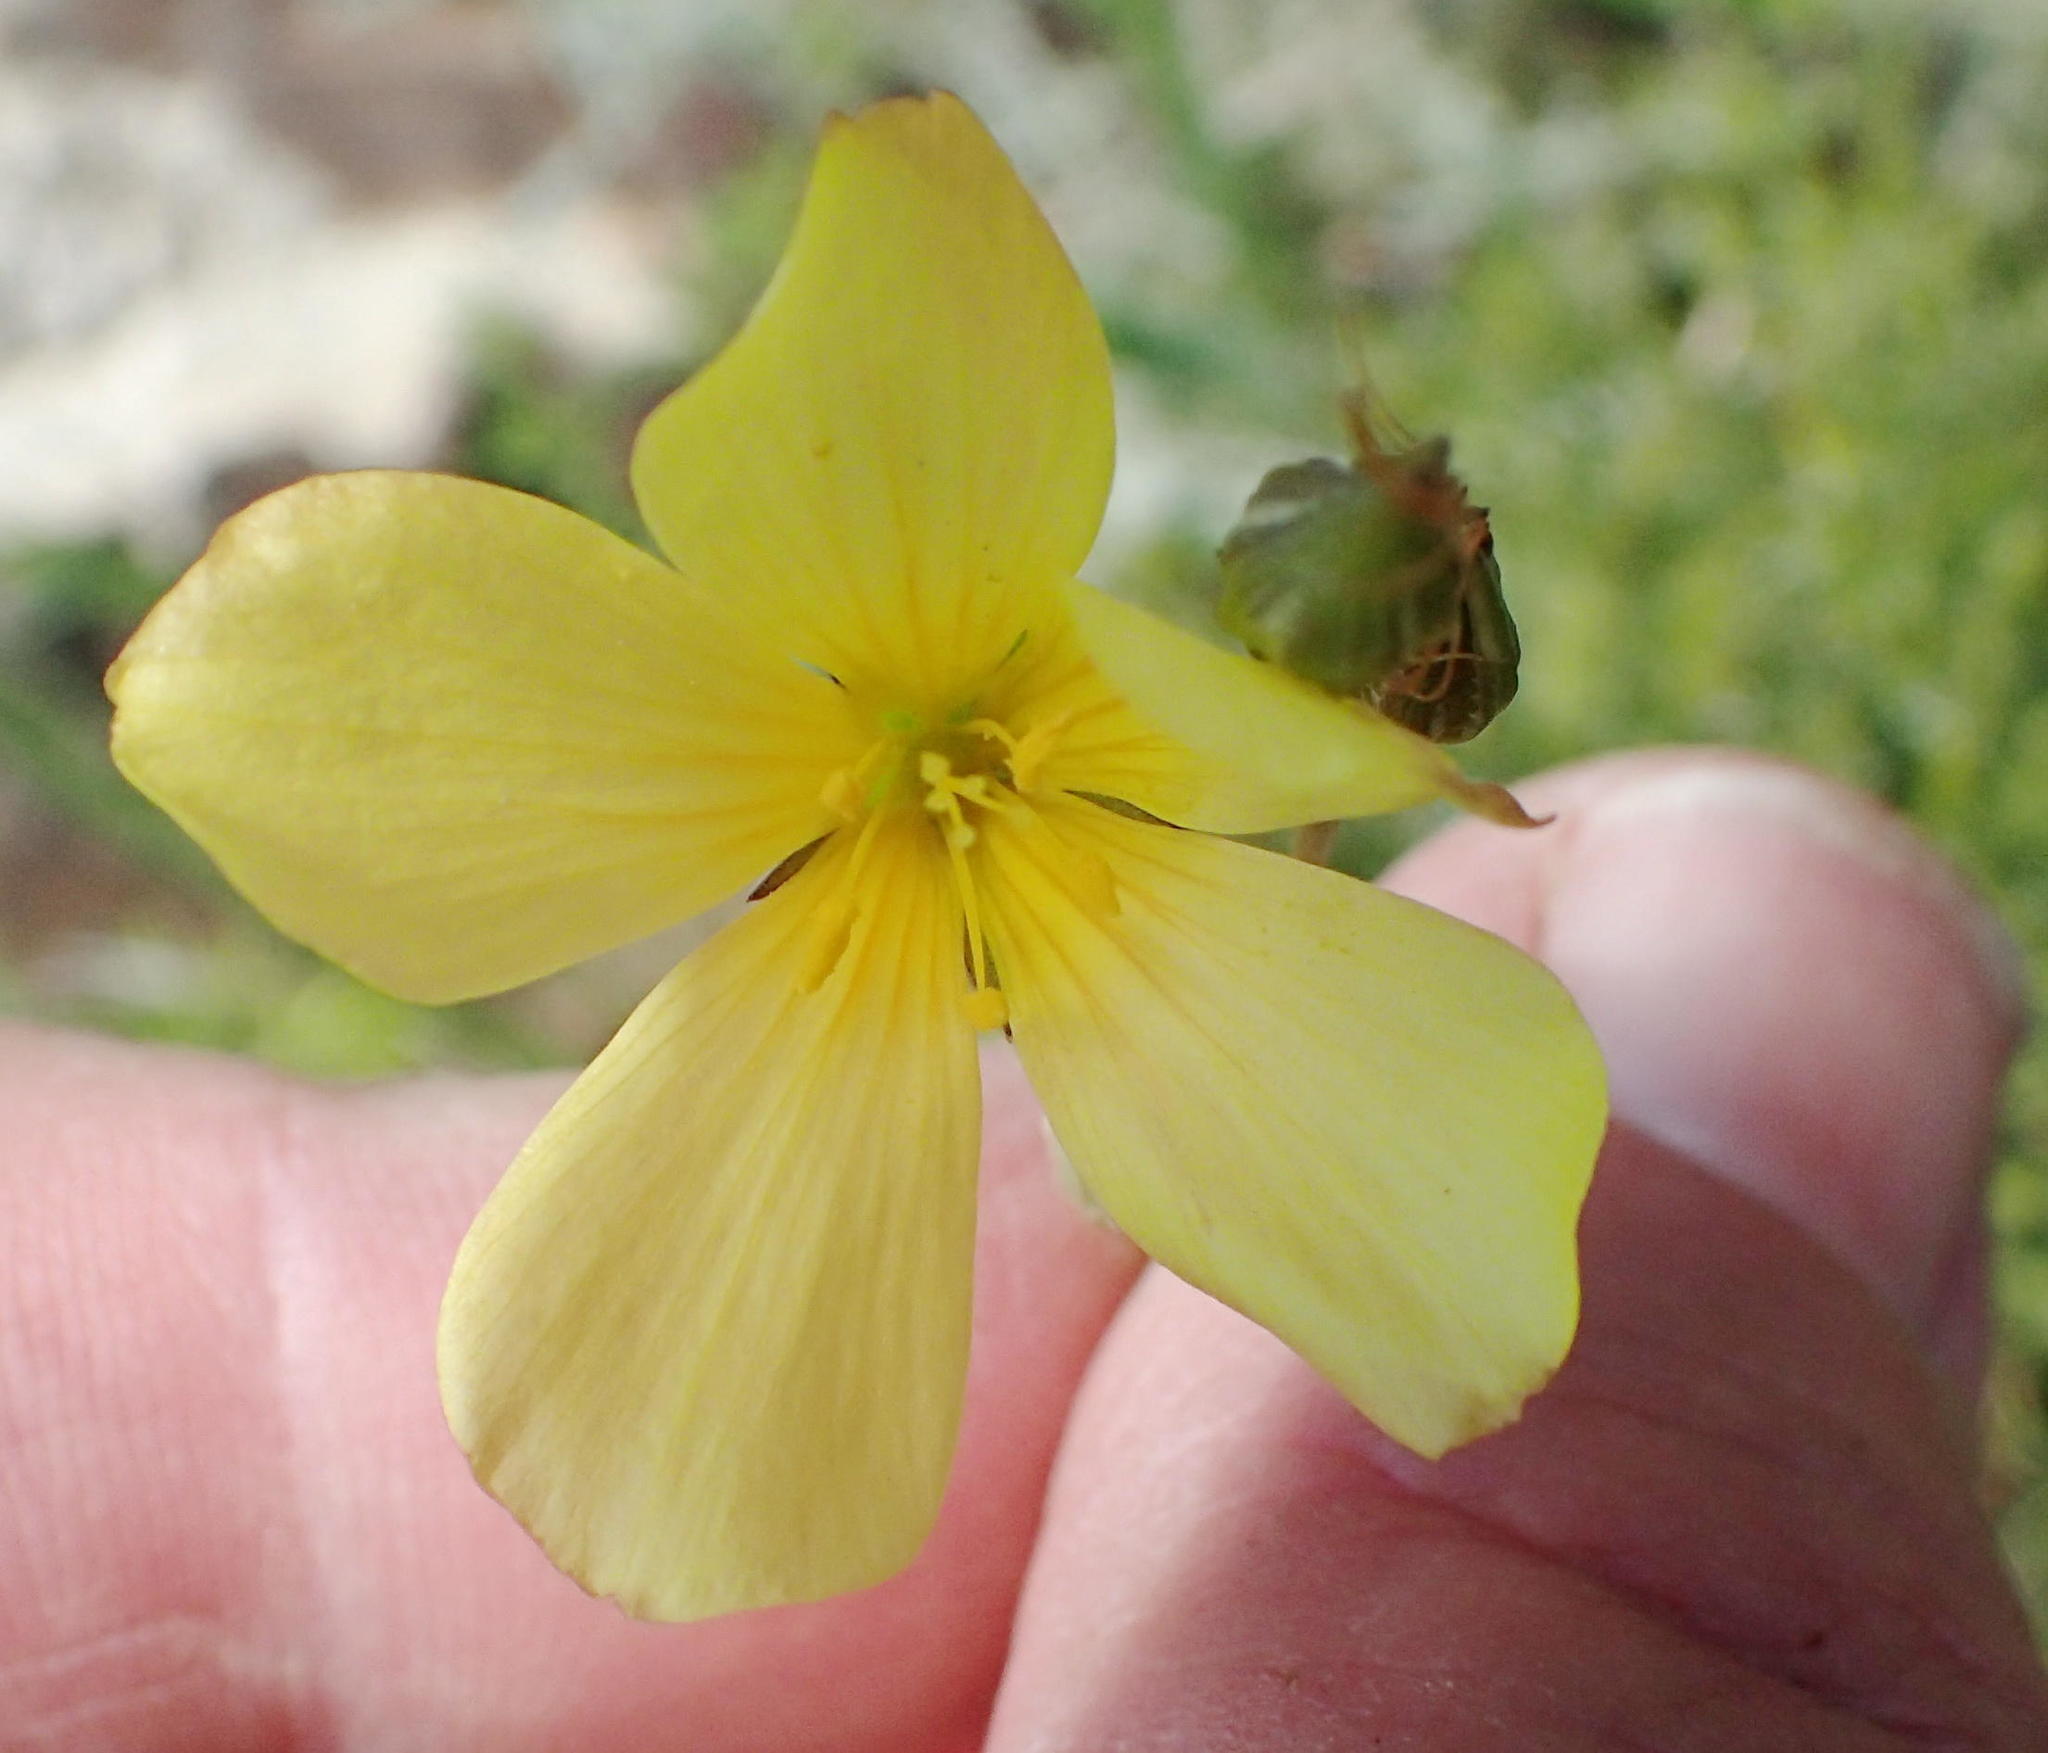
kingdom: Plantae
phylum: Tracheophyta
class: Magnoliopsida
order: Malpighiales
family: Linaceae
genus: Linum
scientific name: Linum africanum
